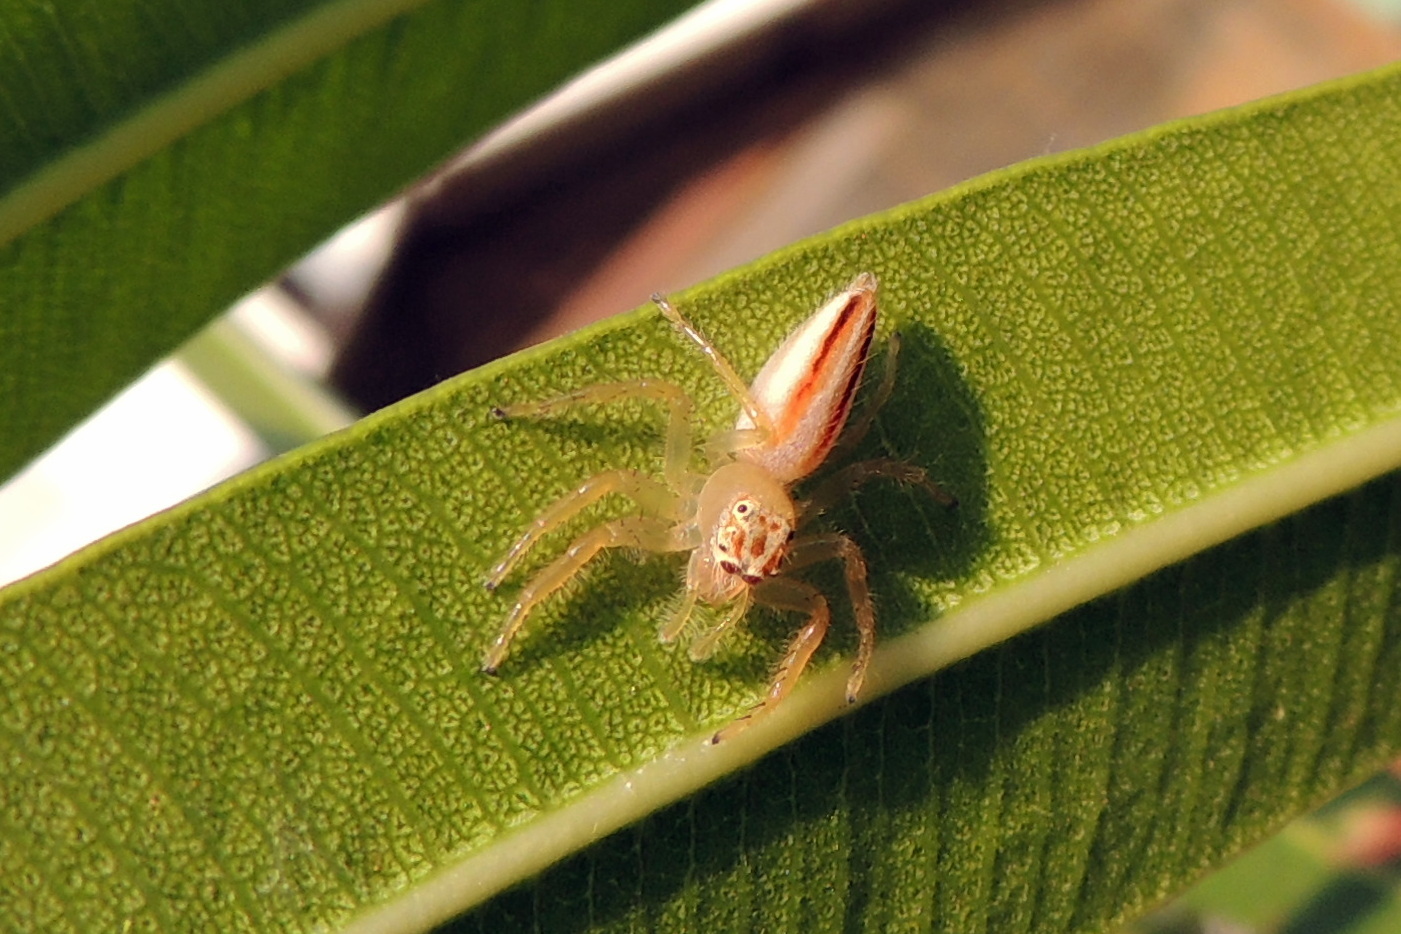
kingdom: Animalia
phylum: Arthropoda
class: Arachnida
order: Araneae
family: Salticidae
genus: Telamonia
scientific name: Telamonia dimidiata
